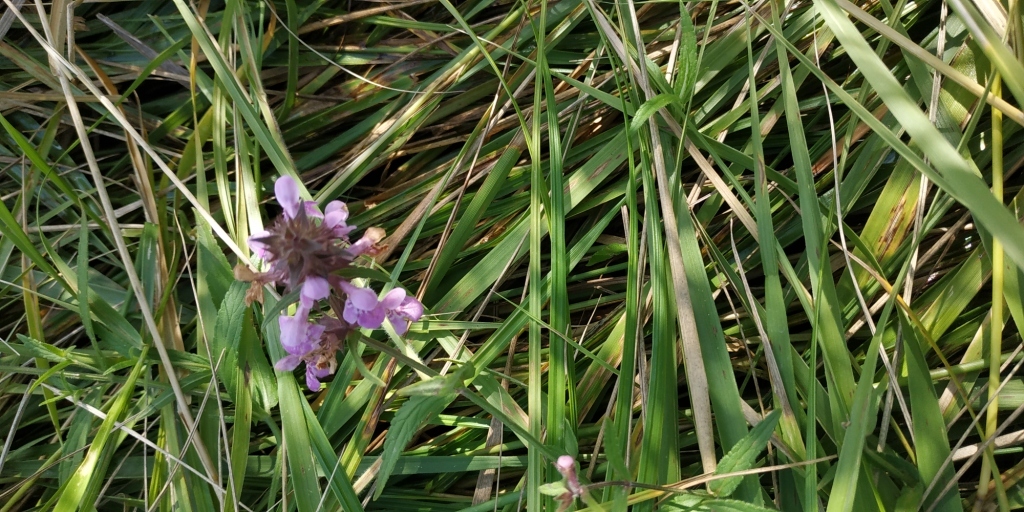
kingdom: Plantae
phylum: Tracheophyta
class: Magnoliopsida
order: Lamiales
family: Lamiaceae
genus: Stachys
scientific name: Stachys palustris
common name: Marsh woundwort
